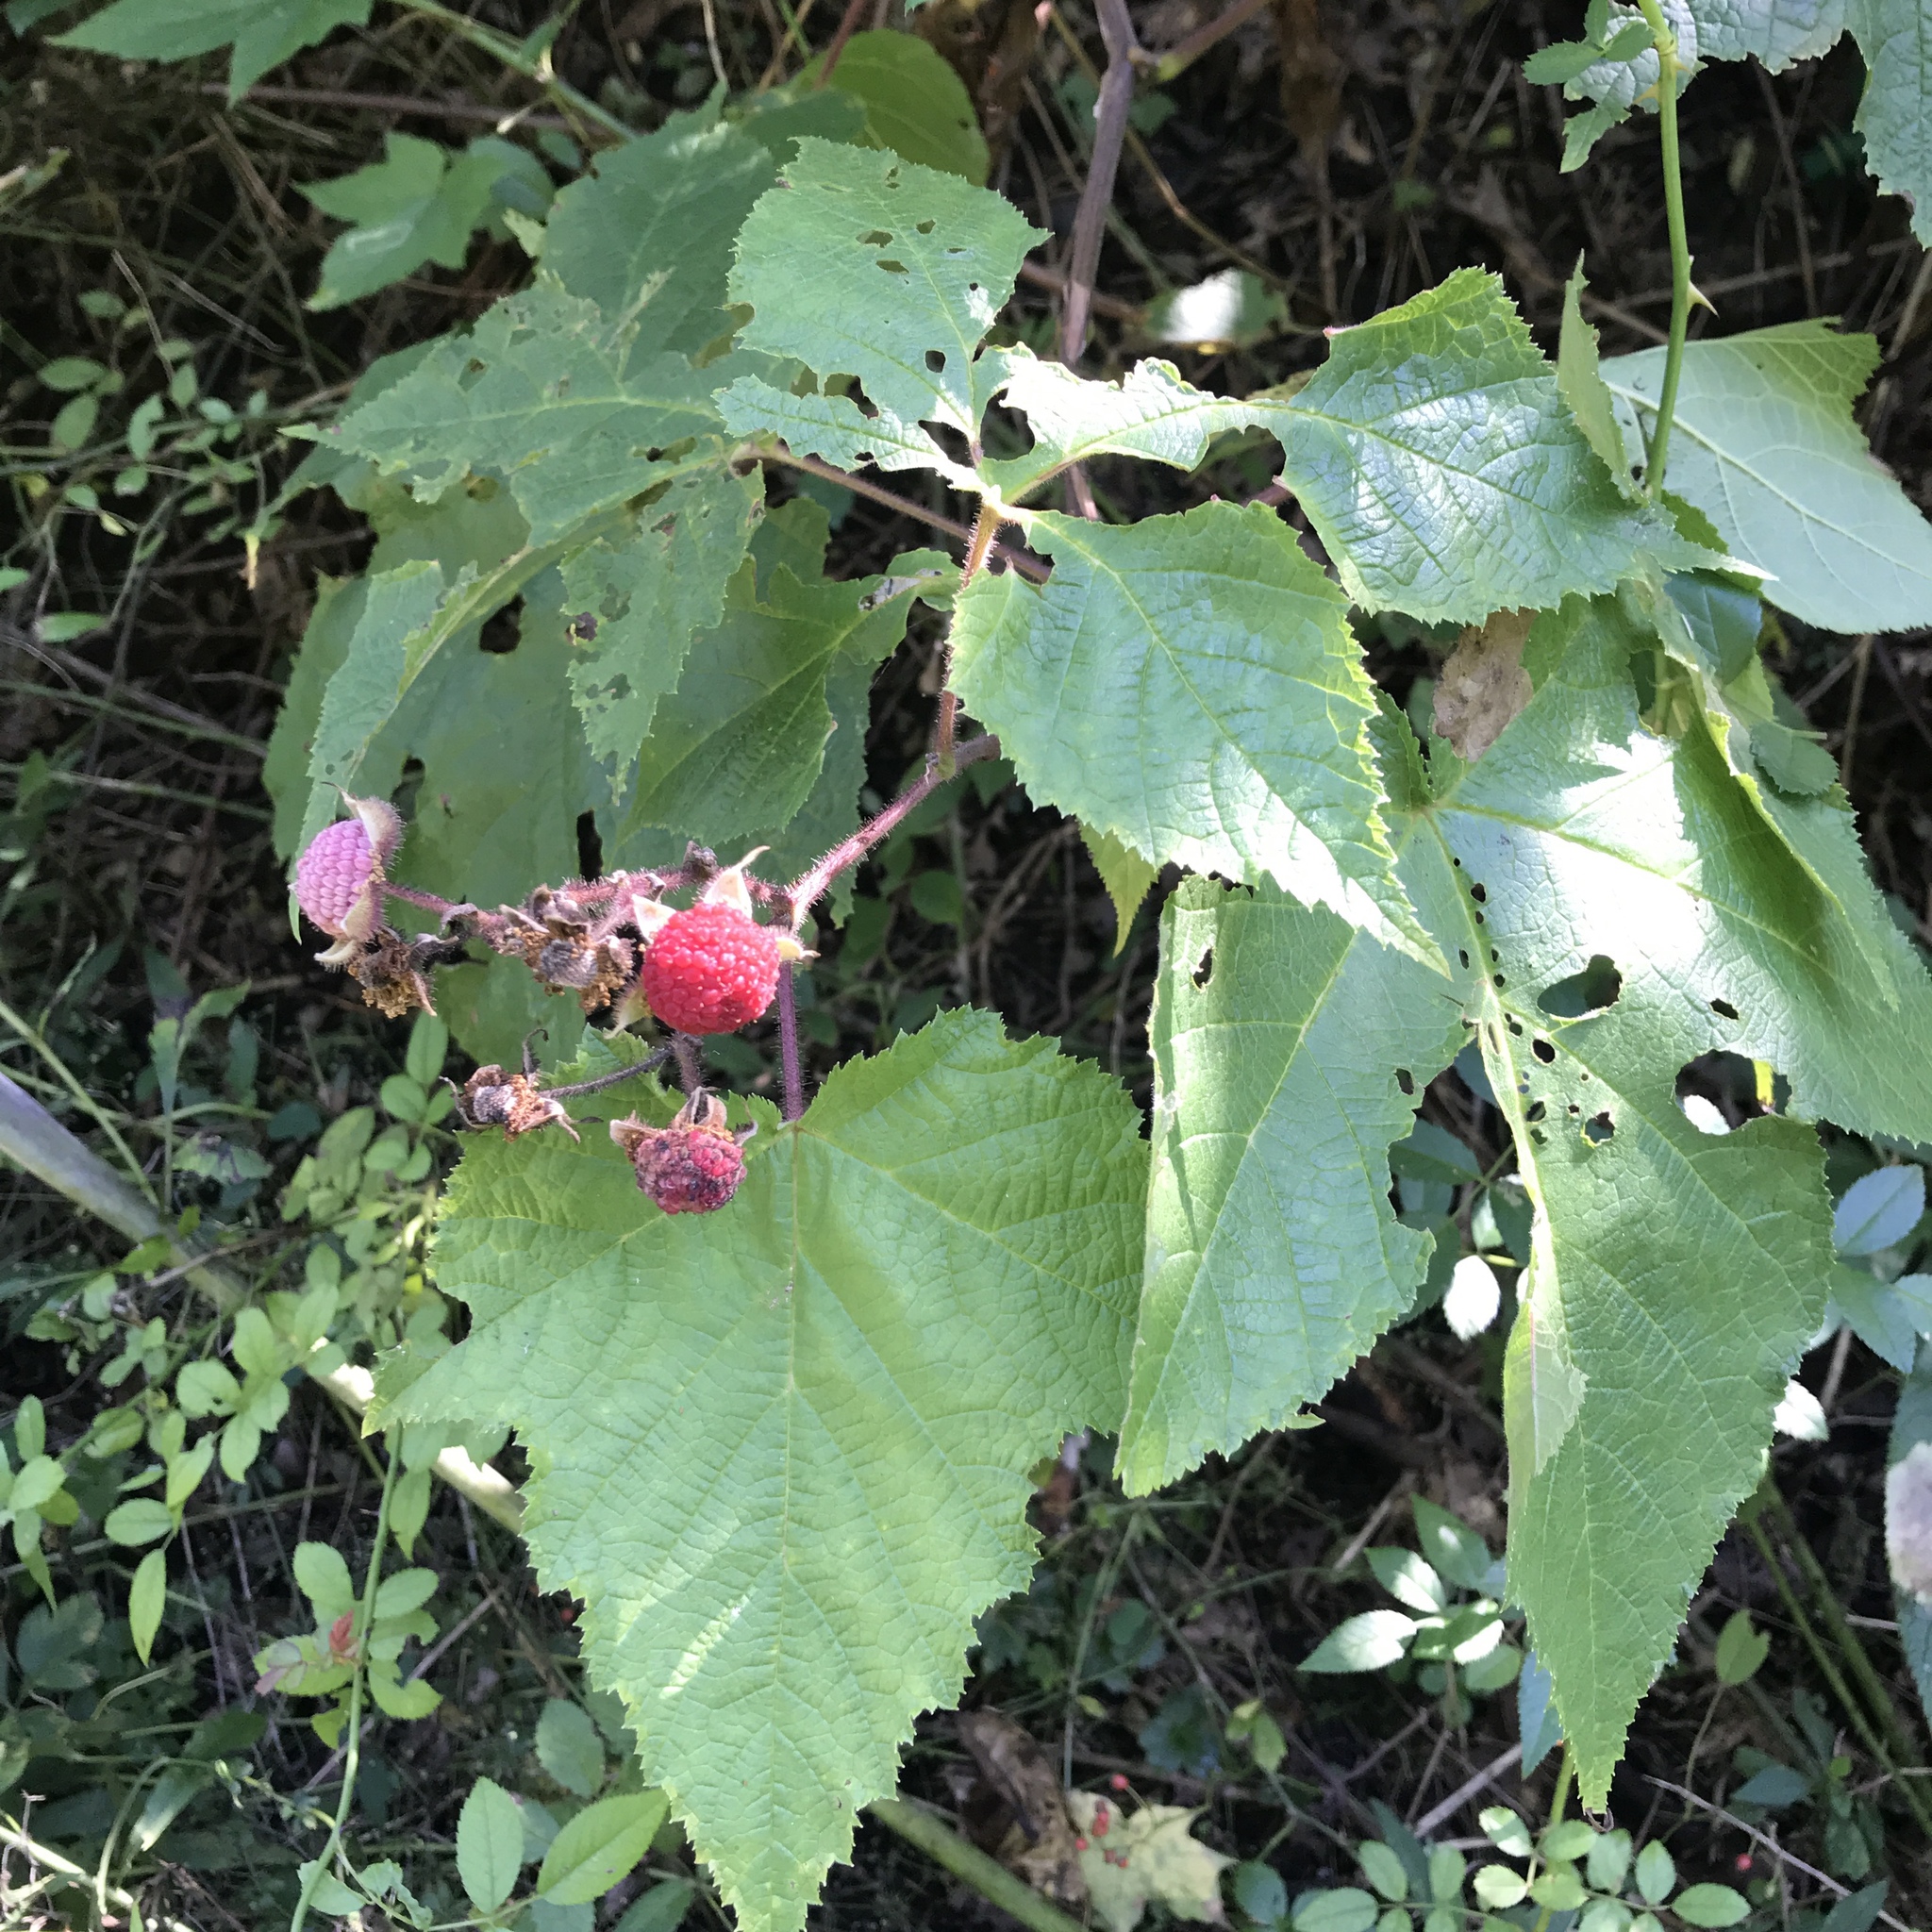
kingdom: Plantae
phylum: Tracheophyta
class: Magnoliopsida
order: Rosales
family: Rosaceae
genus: Rubus
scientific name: Rubus odoratus
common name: Purple-flowered raspberry
